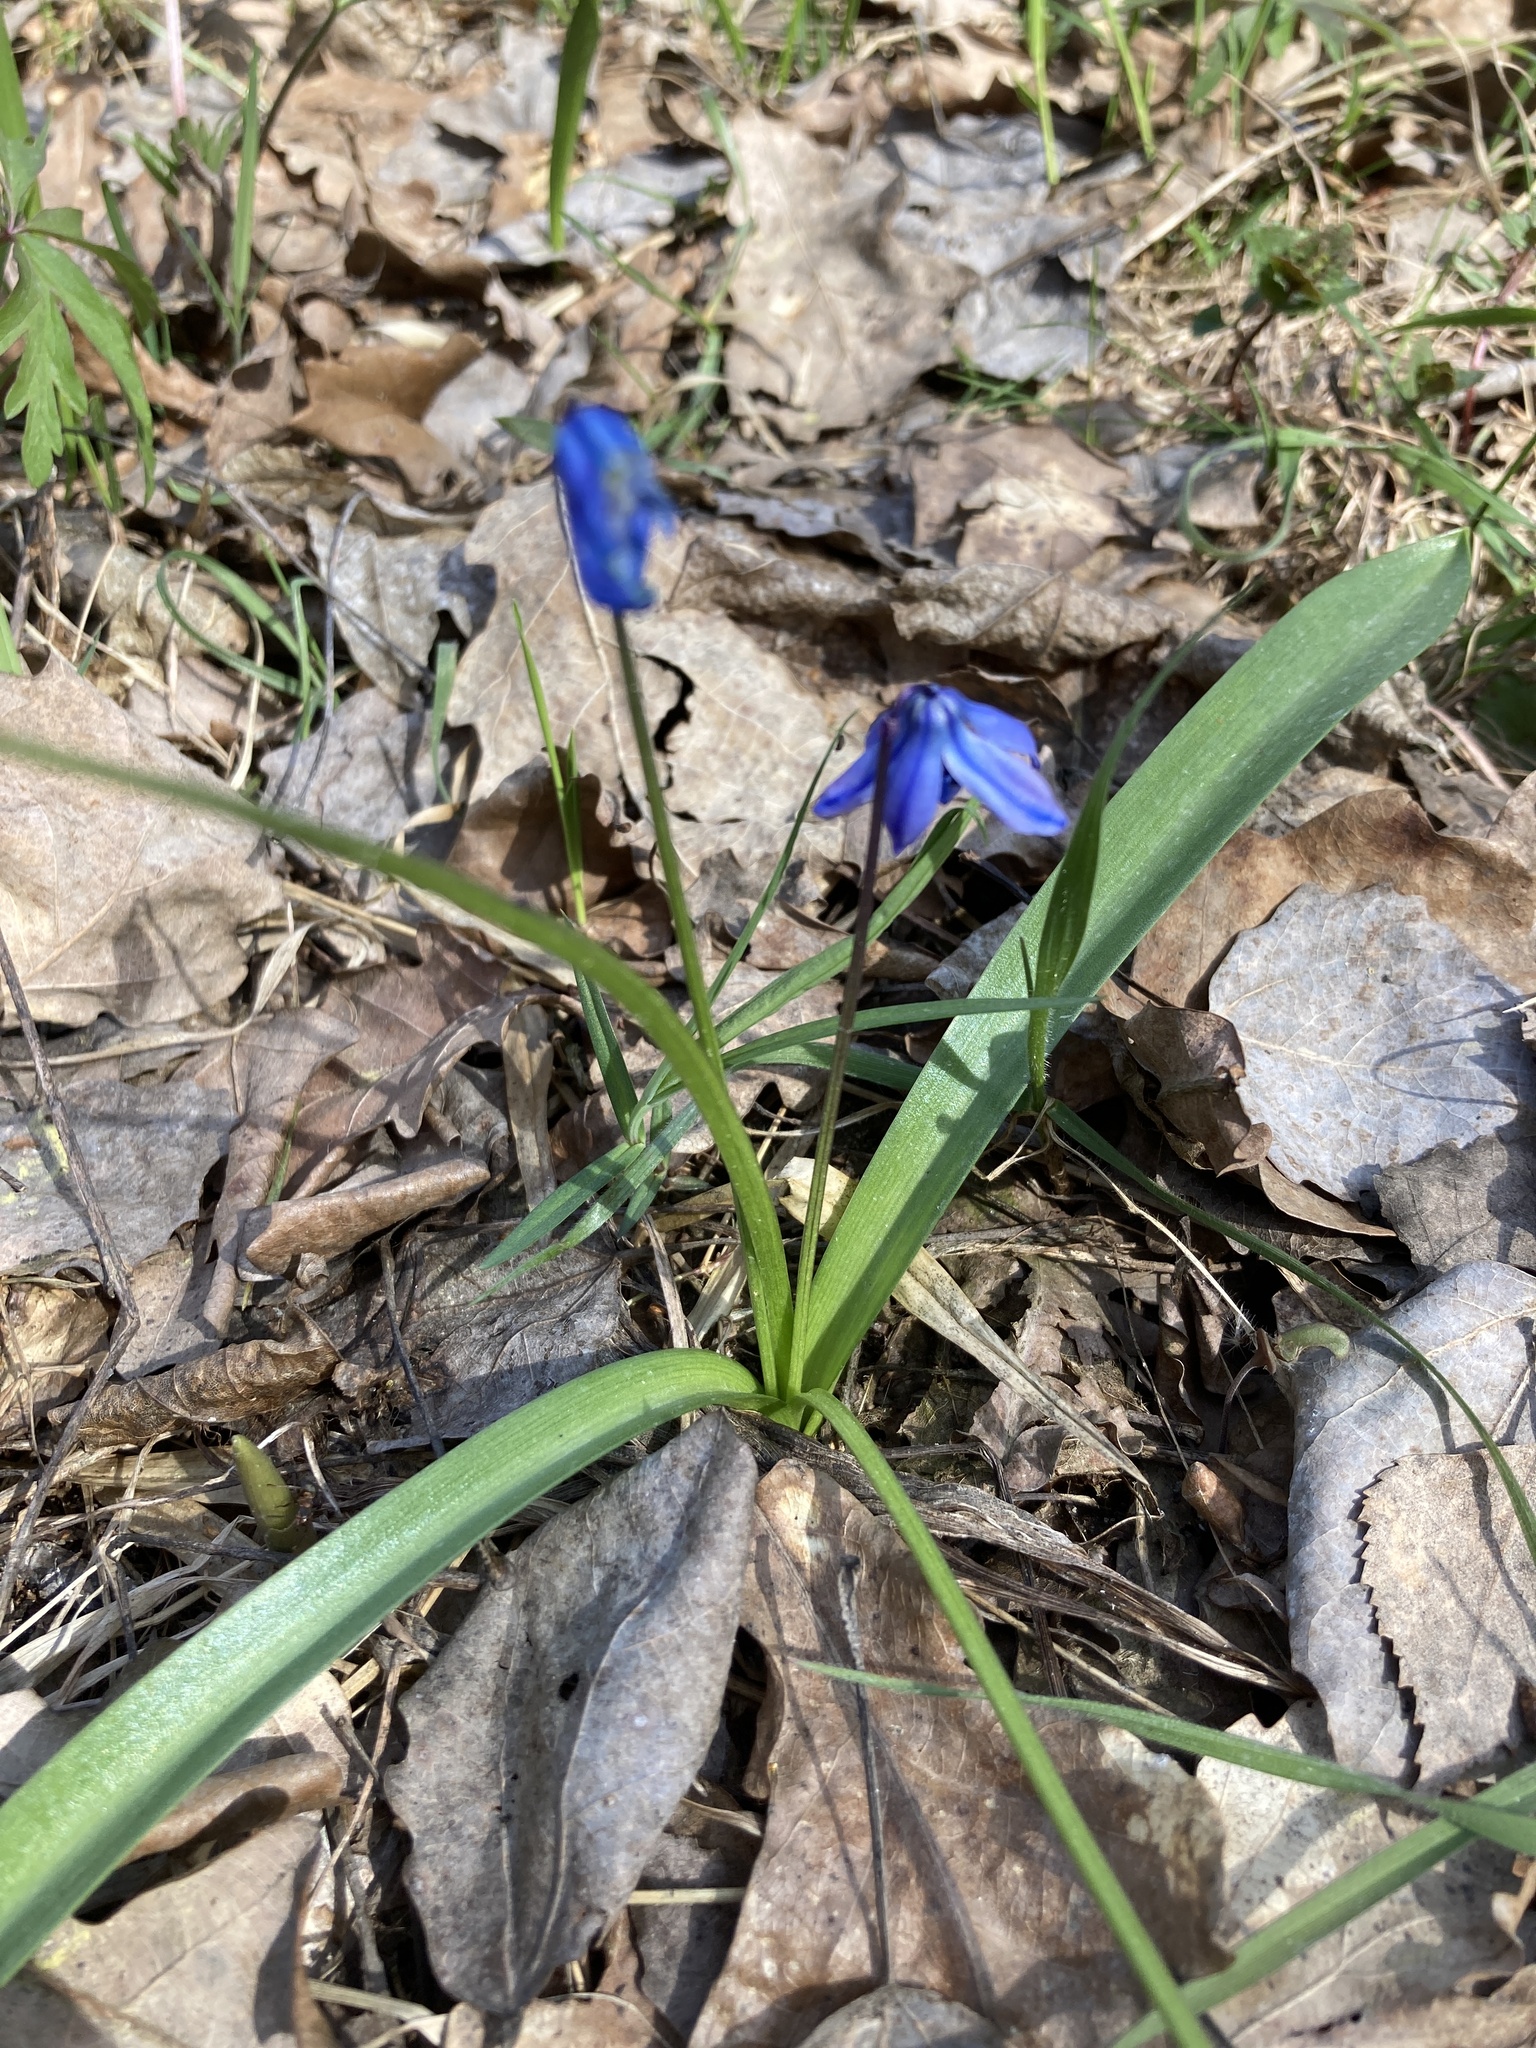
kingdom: Plantae
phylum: Tracheophyta
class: Liliopsida
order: Asparagales
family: Asparagaceae
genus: Scilla
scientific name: Scilla siberica
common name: Siberian squill
